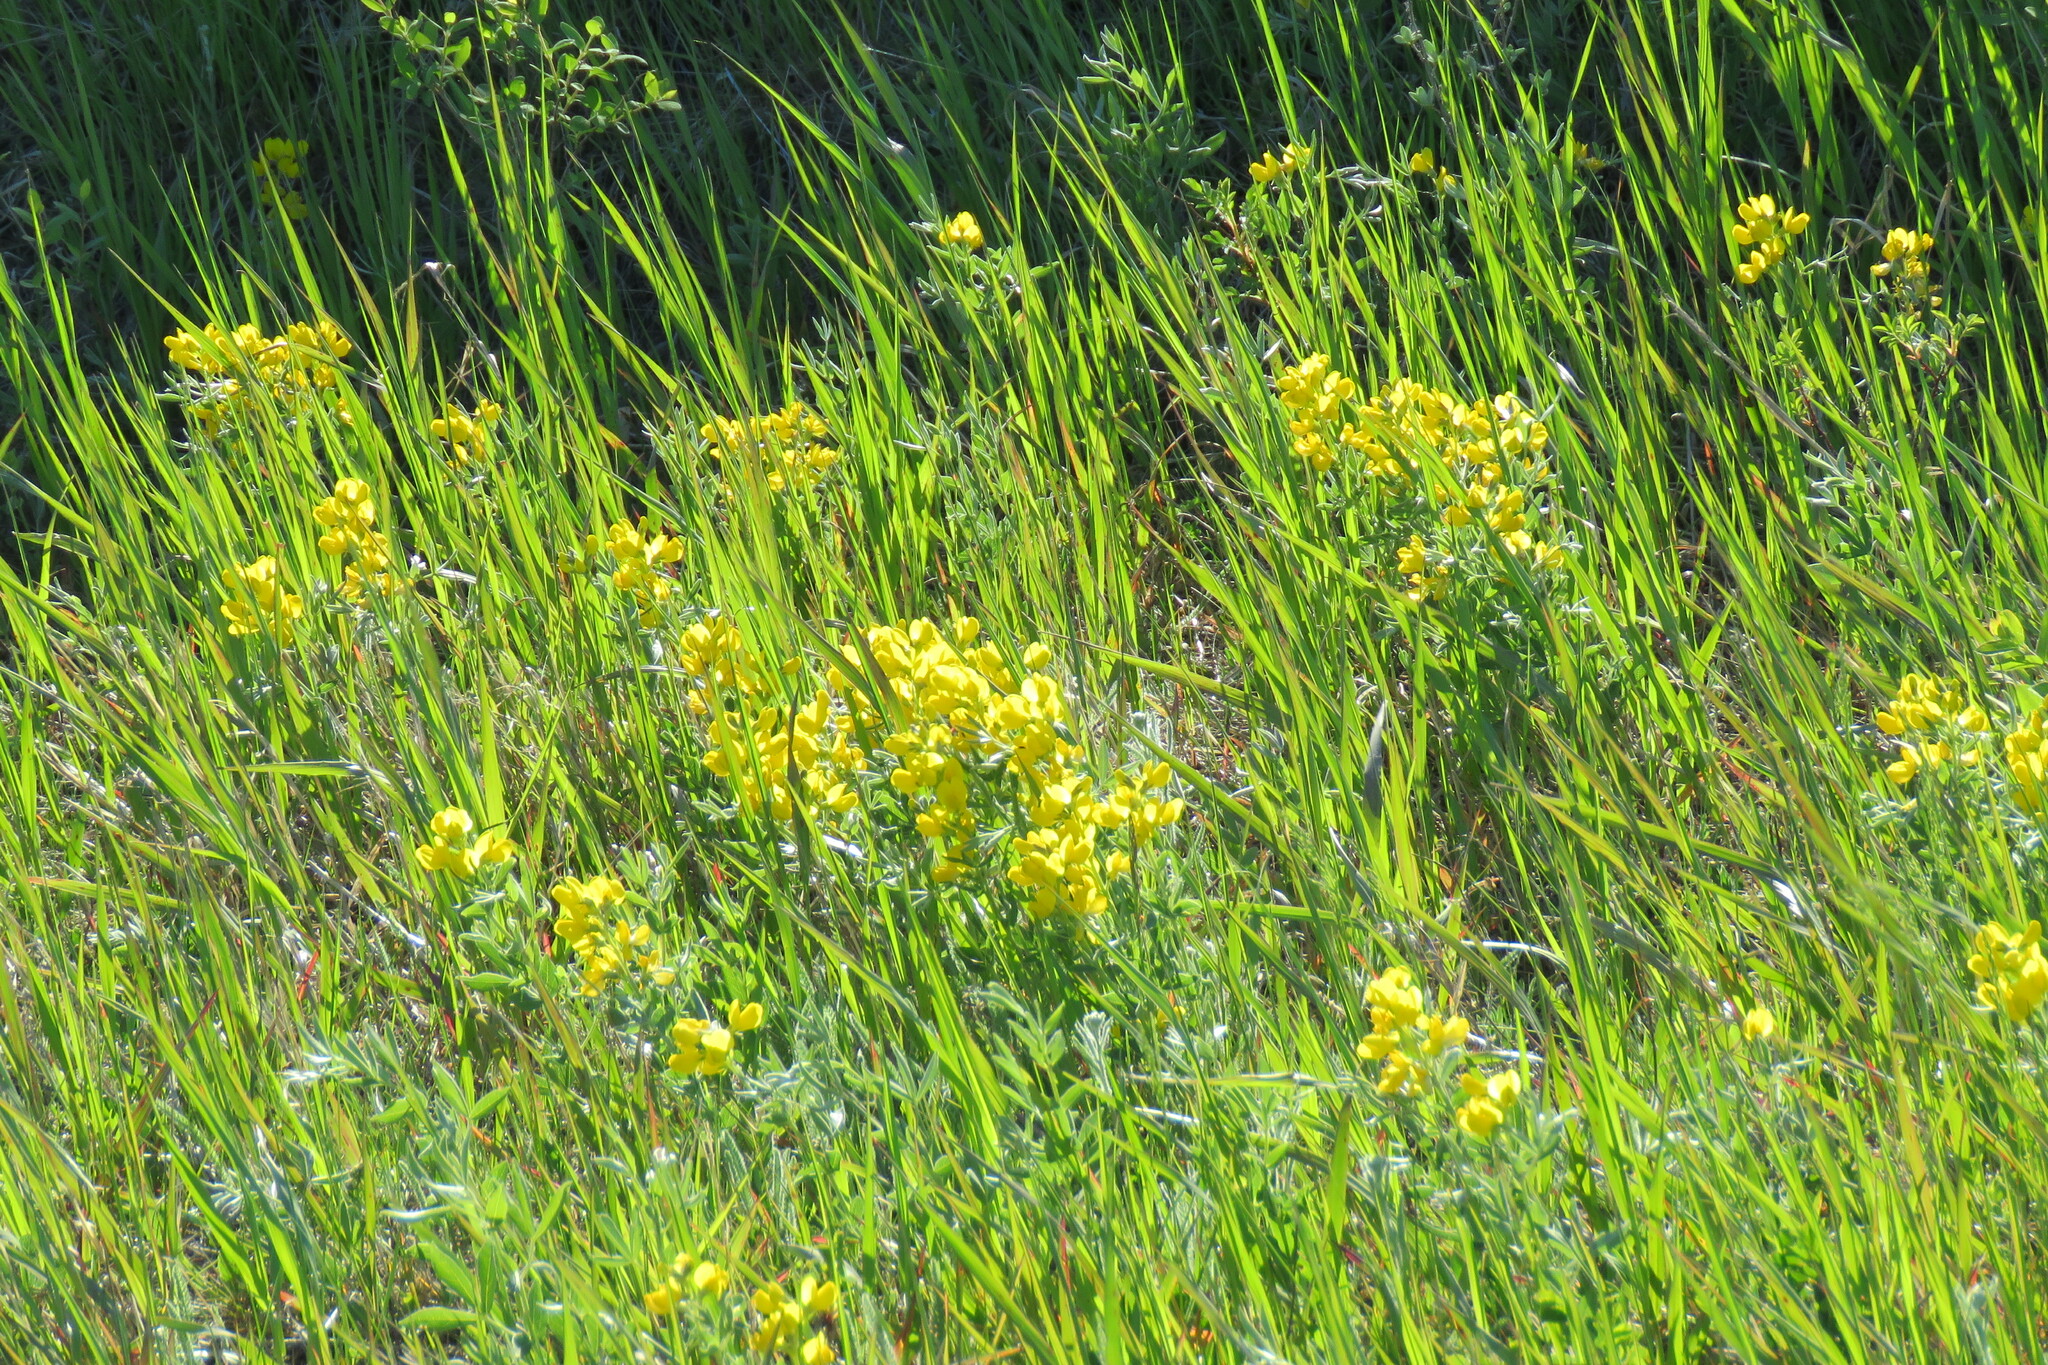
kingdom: Plantae
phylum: Tracheophyta
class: Magnoliopsida
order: Fabales
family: Fabaceae
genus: Thermopsis
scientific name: Thermopsis rhombifolia
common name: Circle-pod-pea
